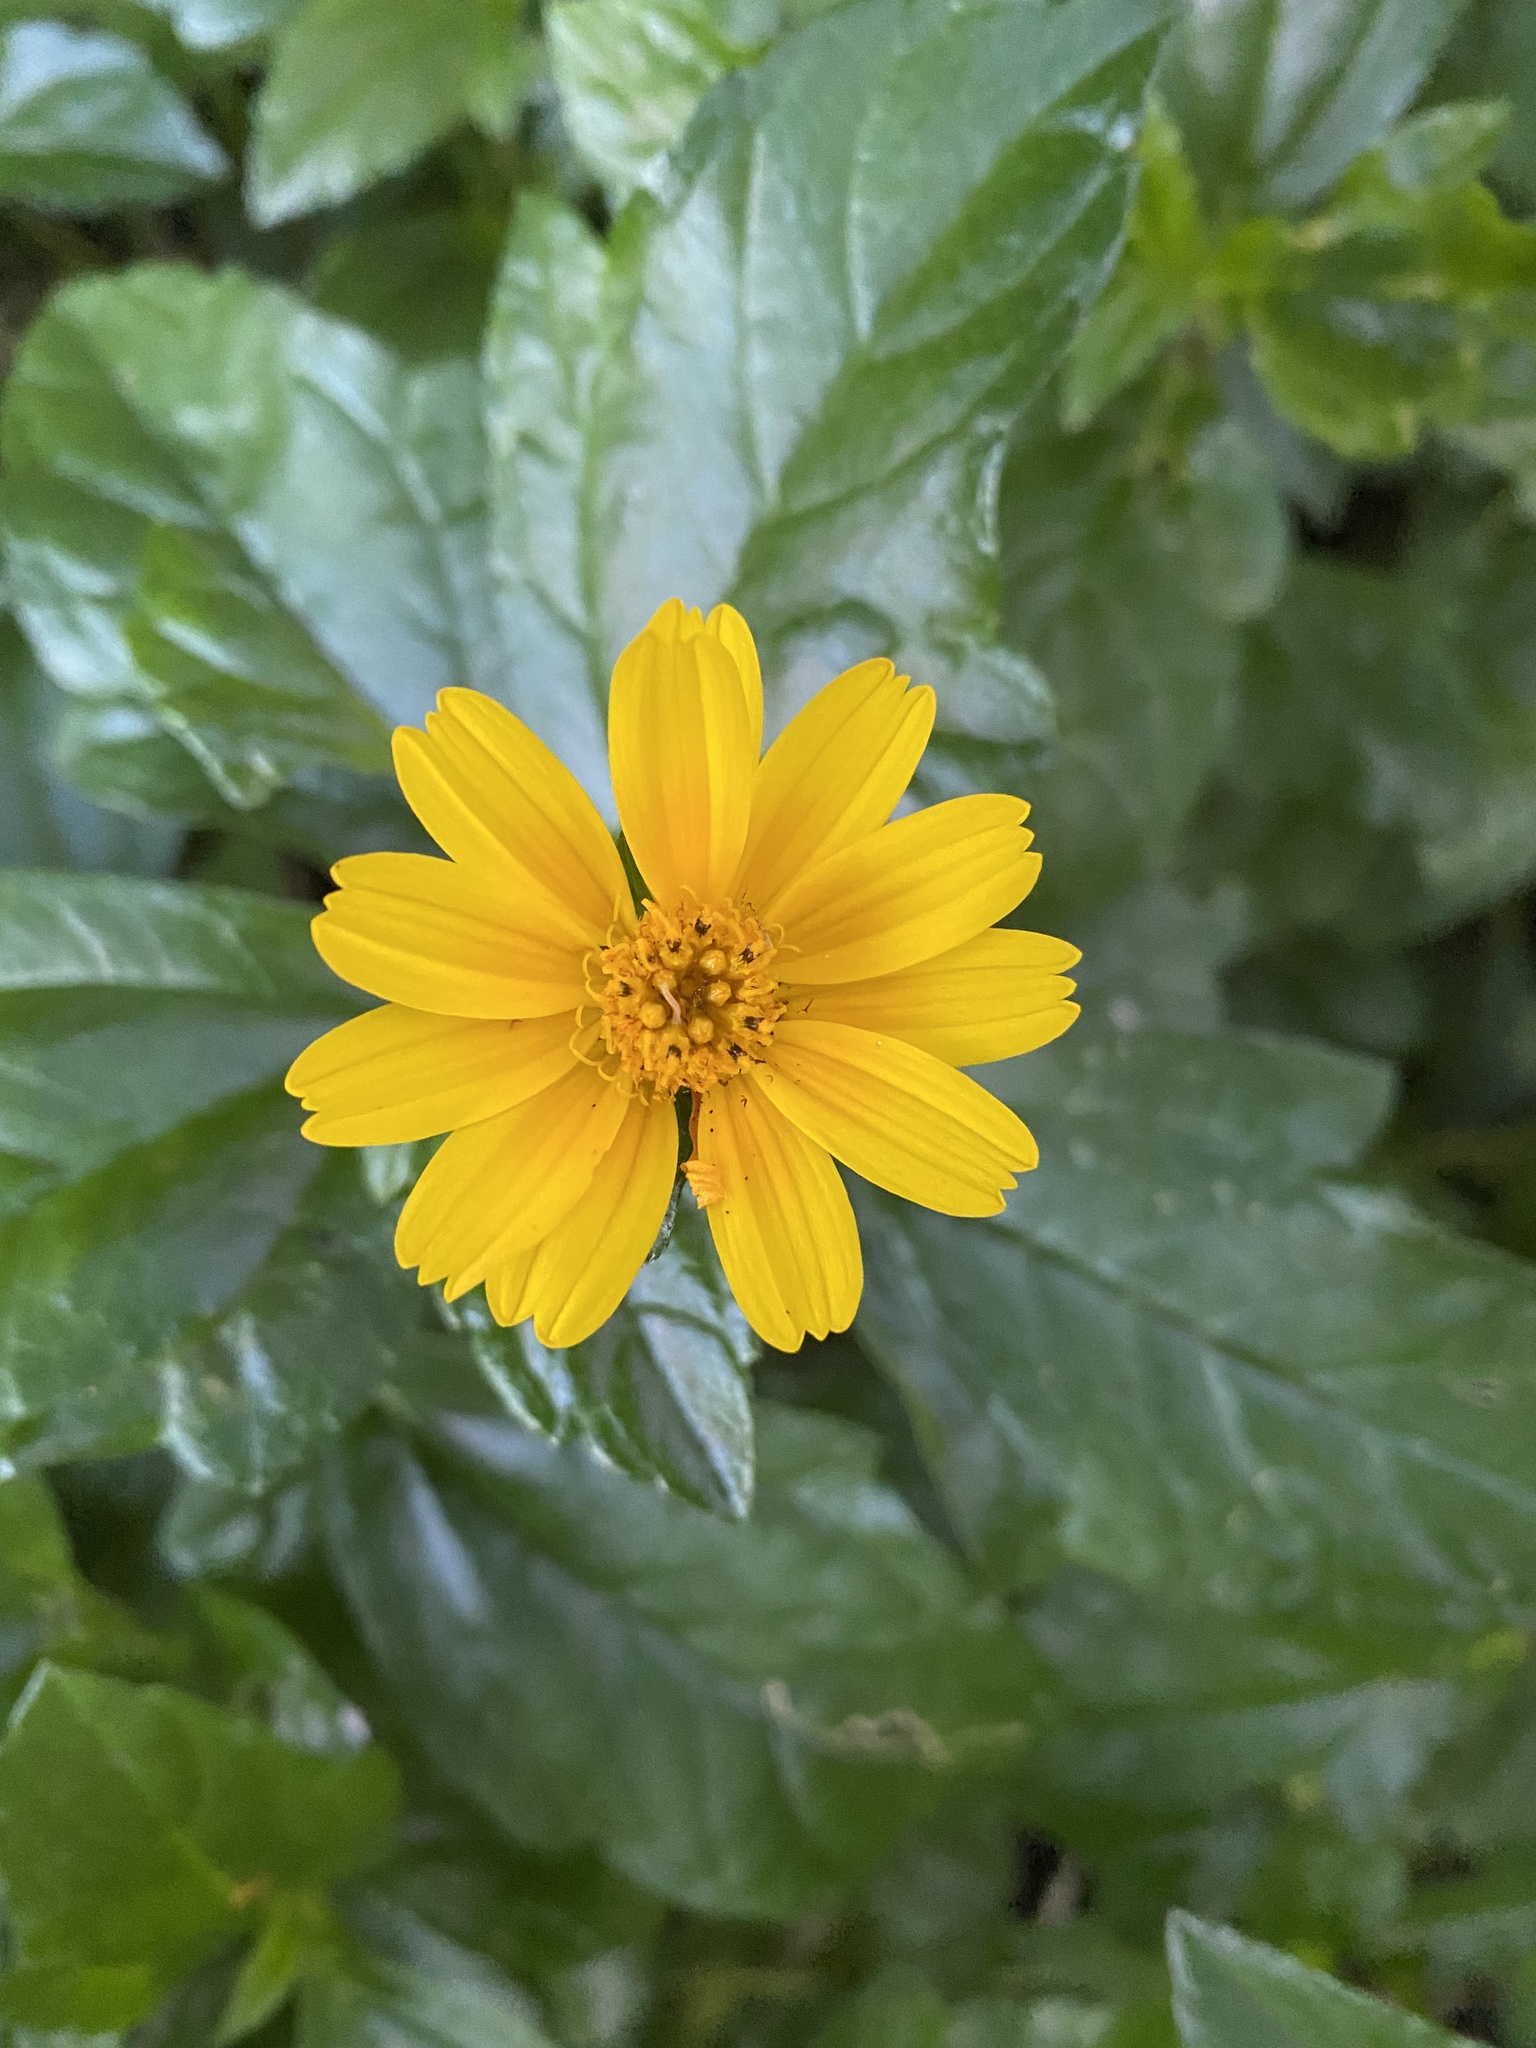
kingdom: Plantae
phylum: Tracheophyta
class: Magnoliopsida
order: Asterales
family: Asteraceae
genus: Sphagneticola
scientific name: Sphagneticola trilobata
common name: Bay biscayne creeping-oxeye
